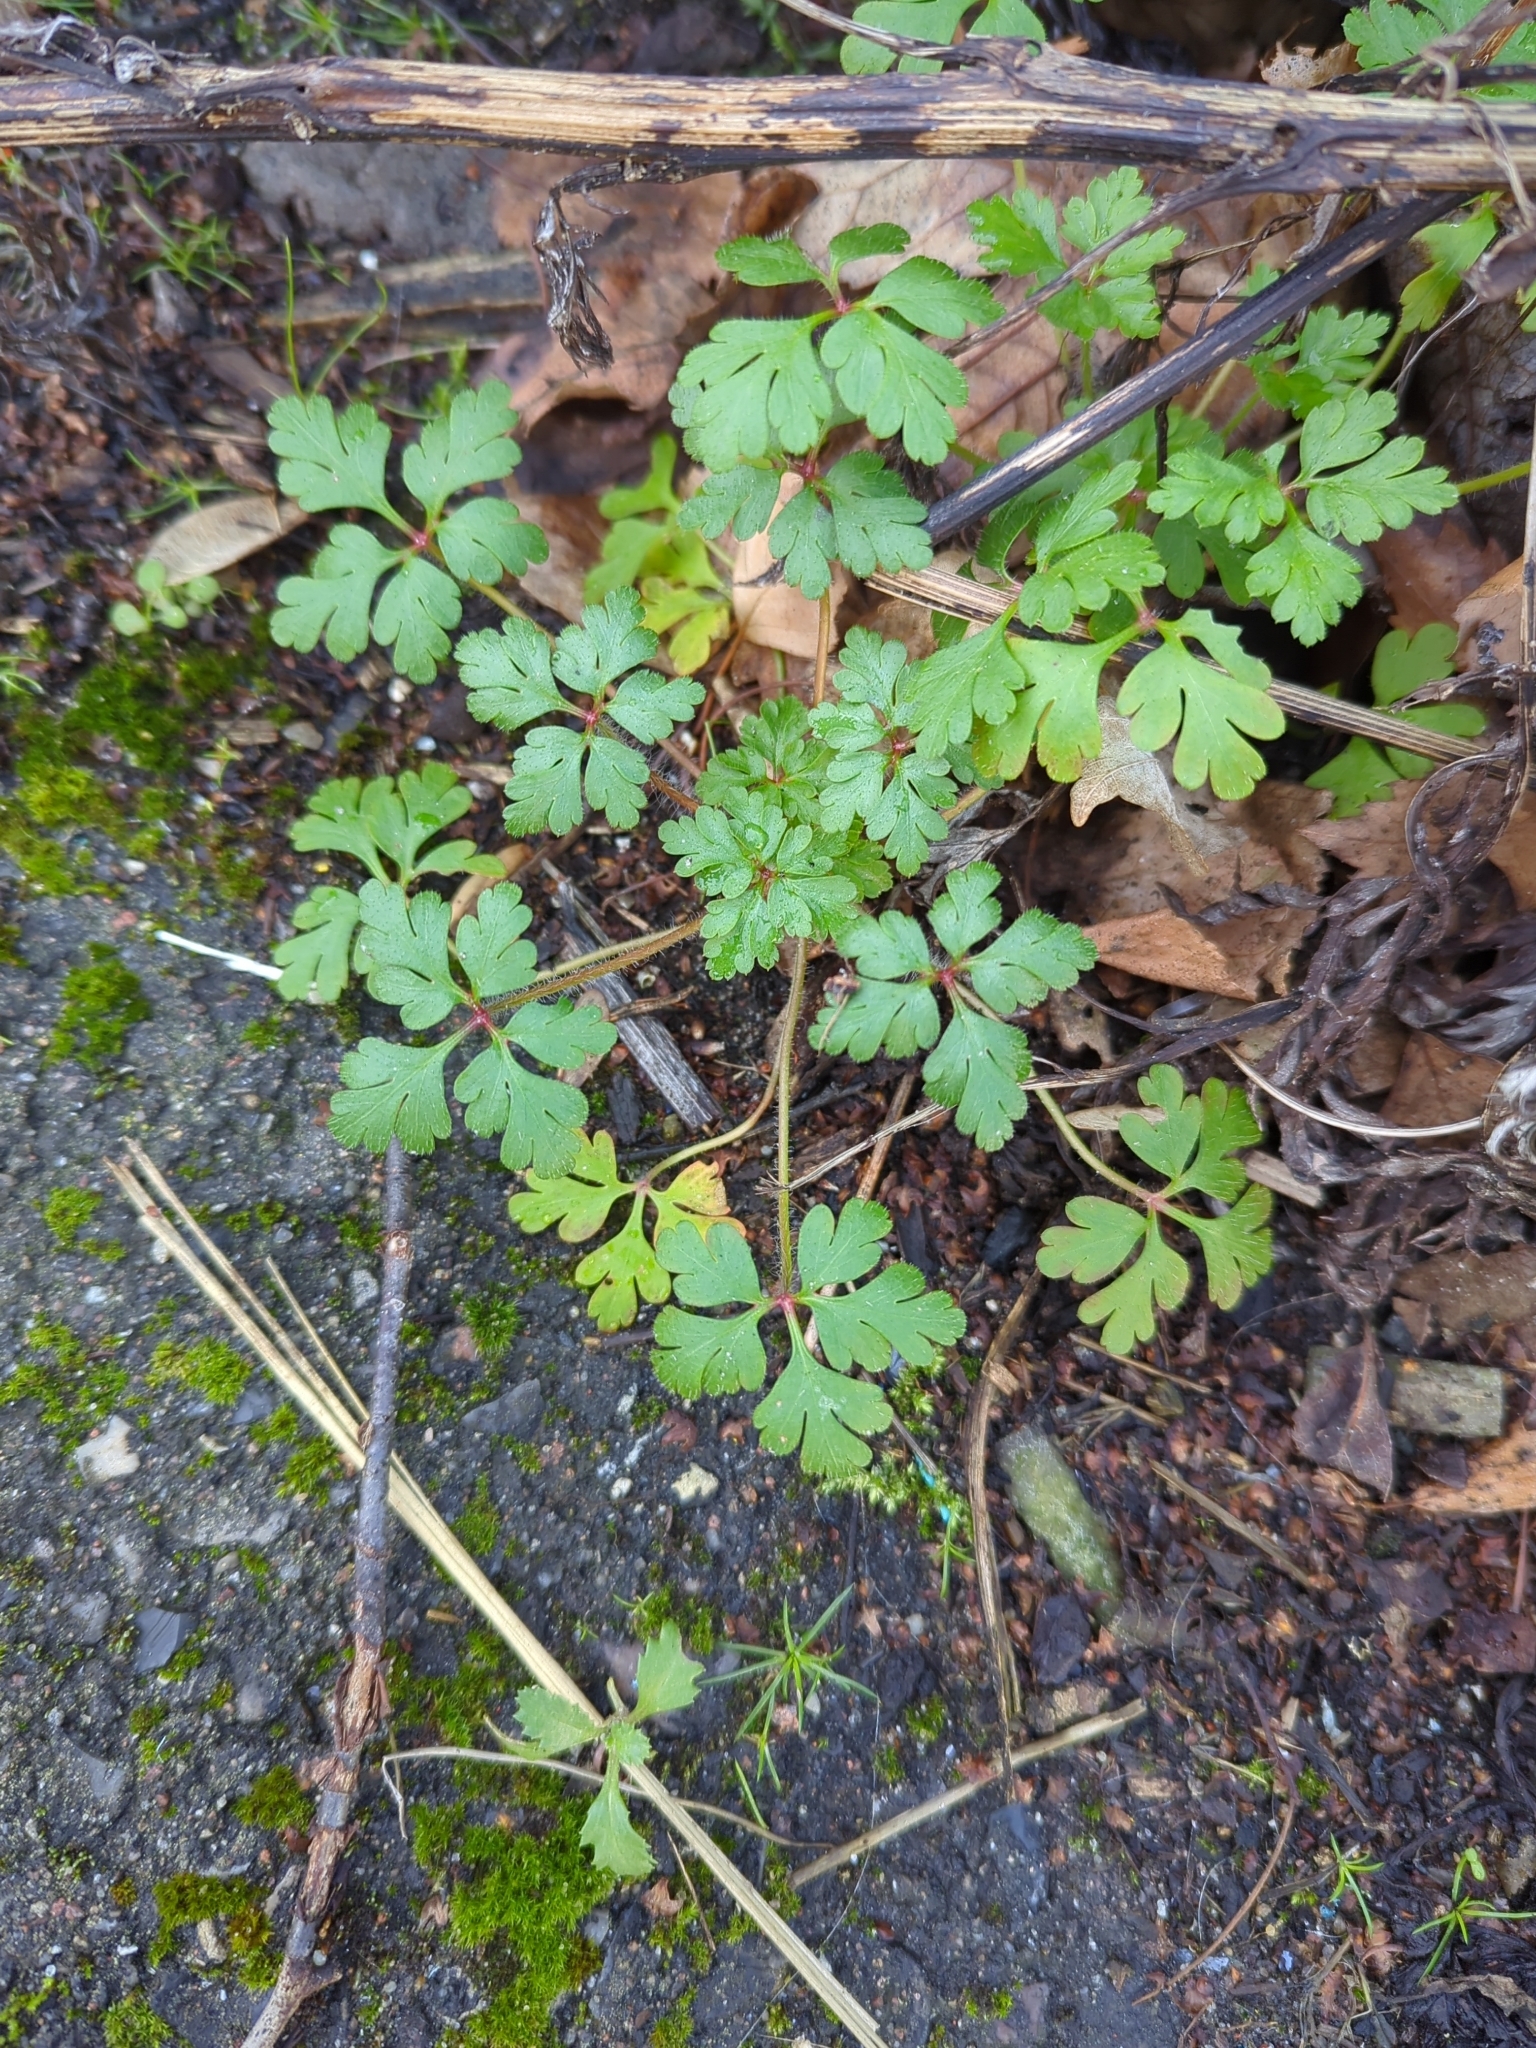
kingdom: Plantae
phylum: Tracheophyta
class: Magnoliopsida
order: Geraniales
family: Geraniaceae
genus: Geranium
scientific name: Geranium robertianum
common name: Herb-robert
